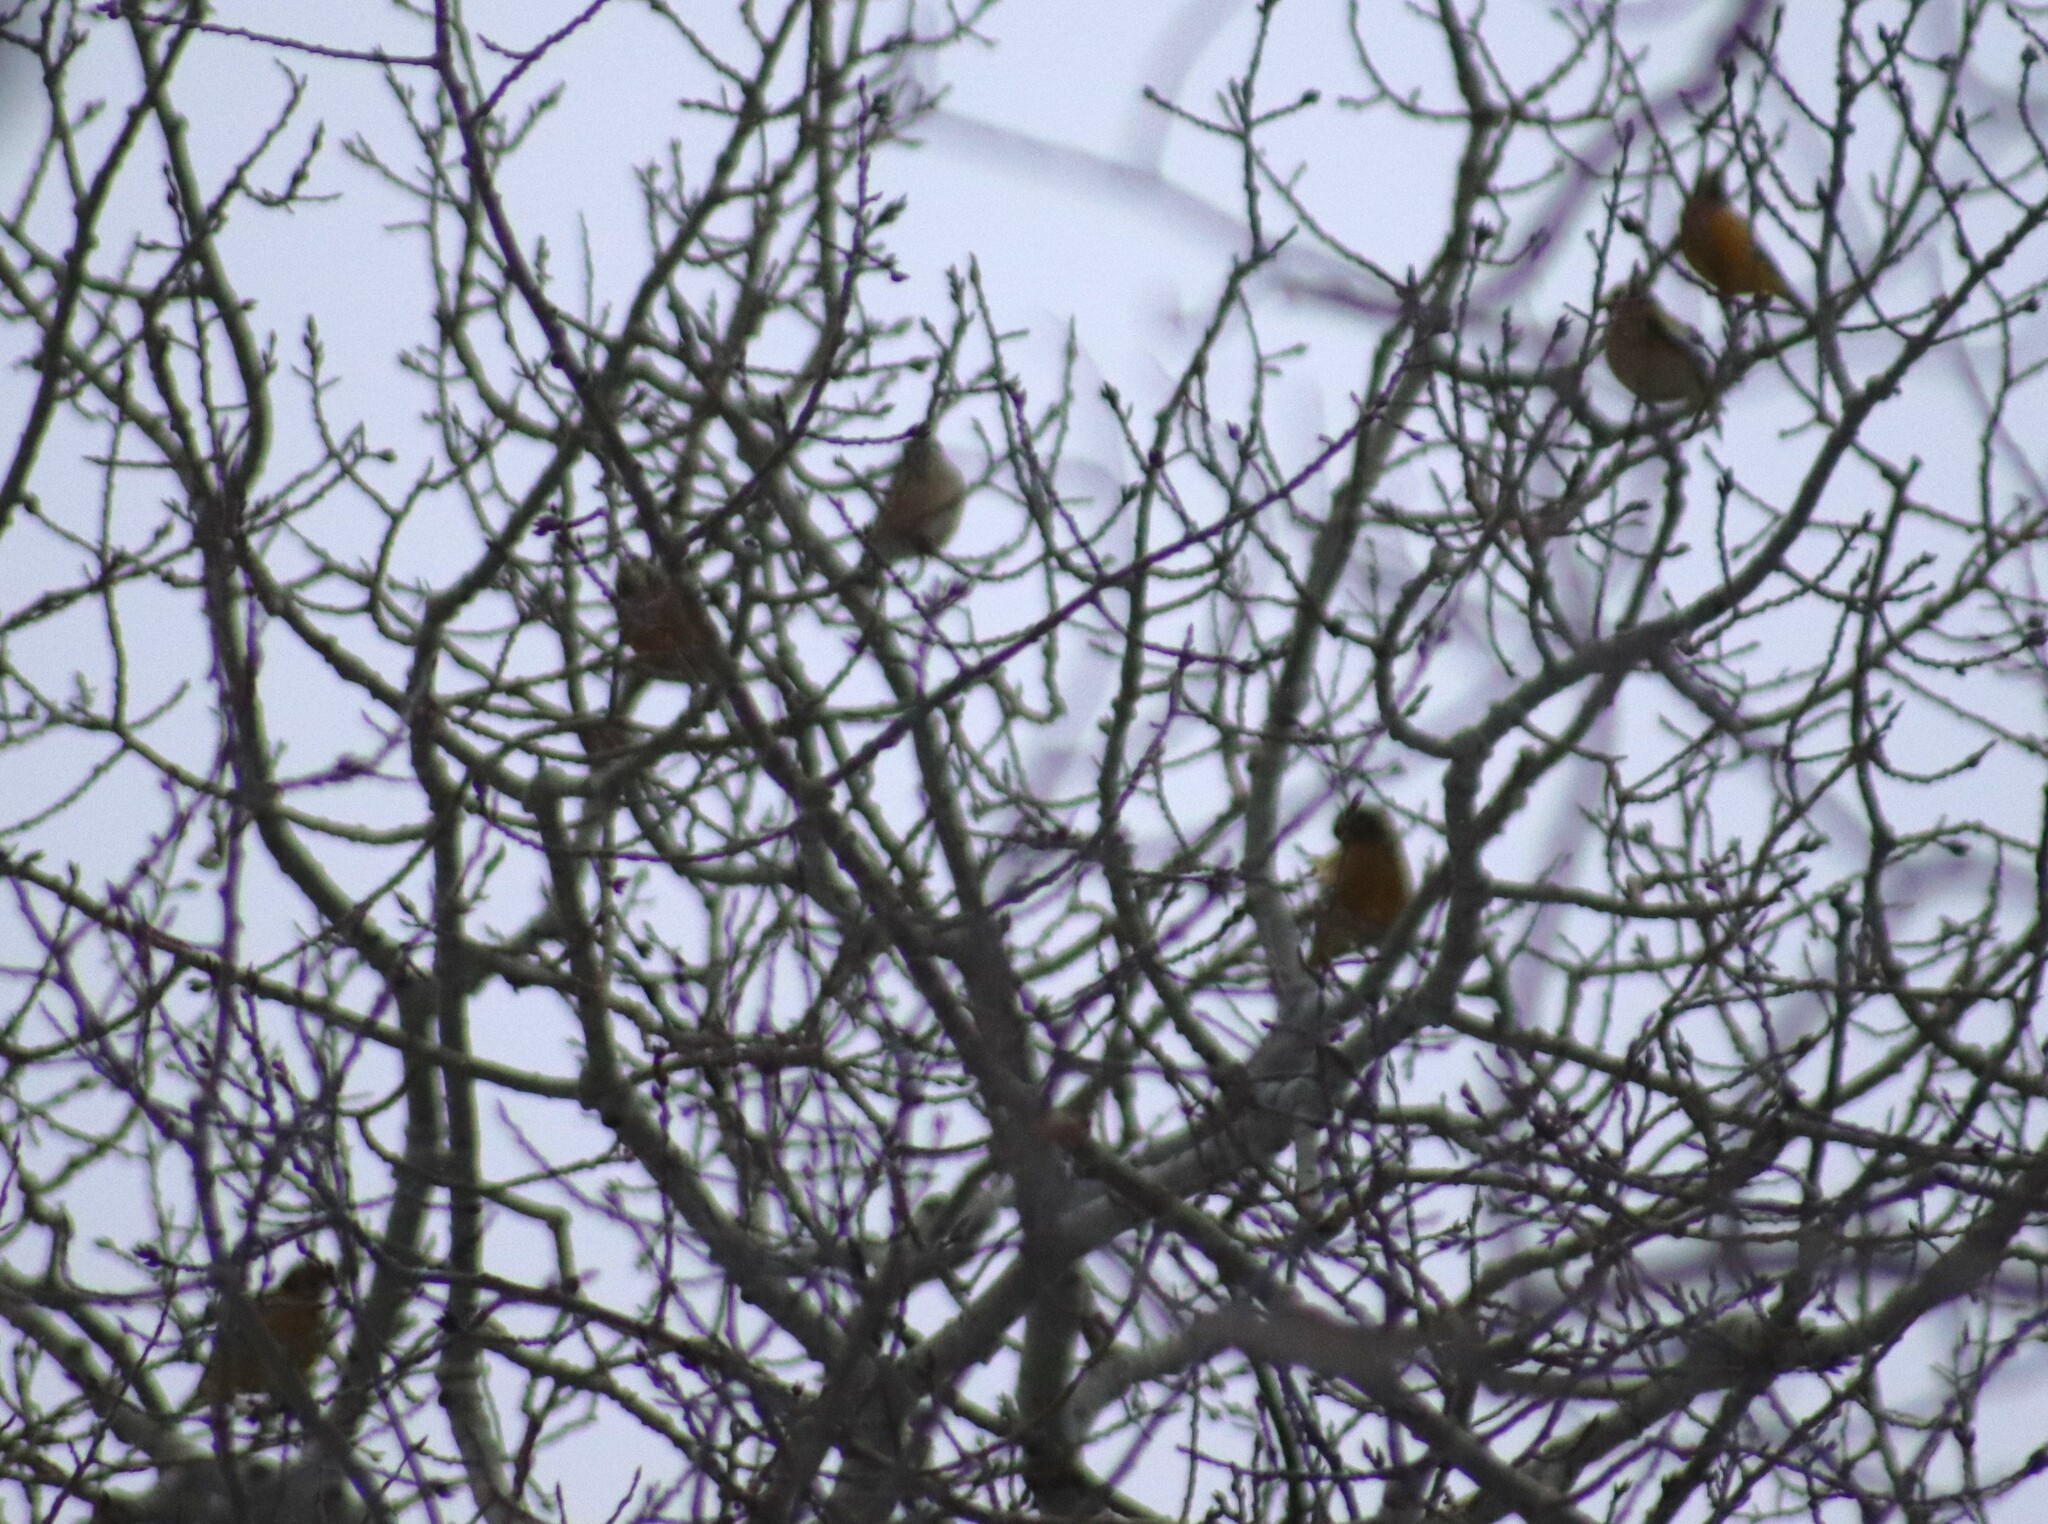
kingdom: Animalia
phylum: Chordata
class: Aves
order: Passeriformes
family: Fringillidae
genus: Hesperiphona
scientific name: Hesperiphona vespertina
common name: Evening grosbeak
